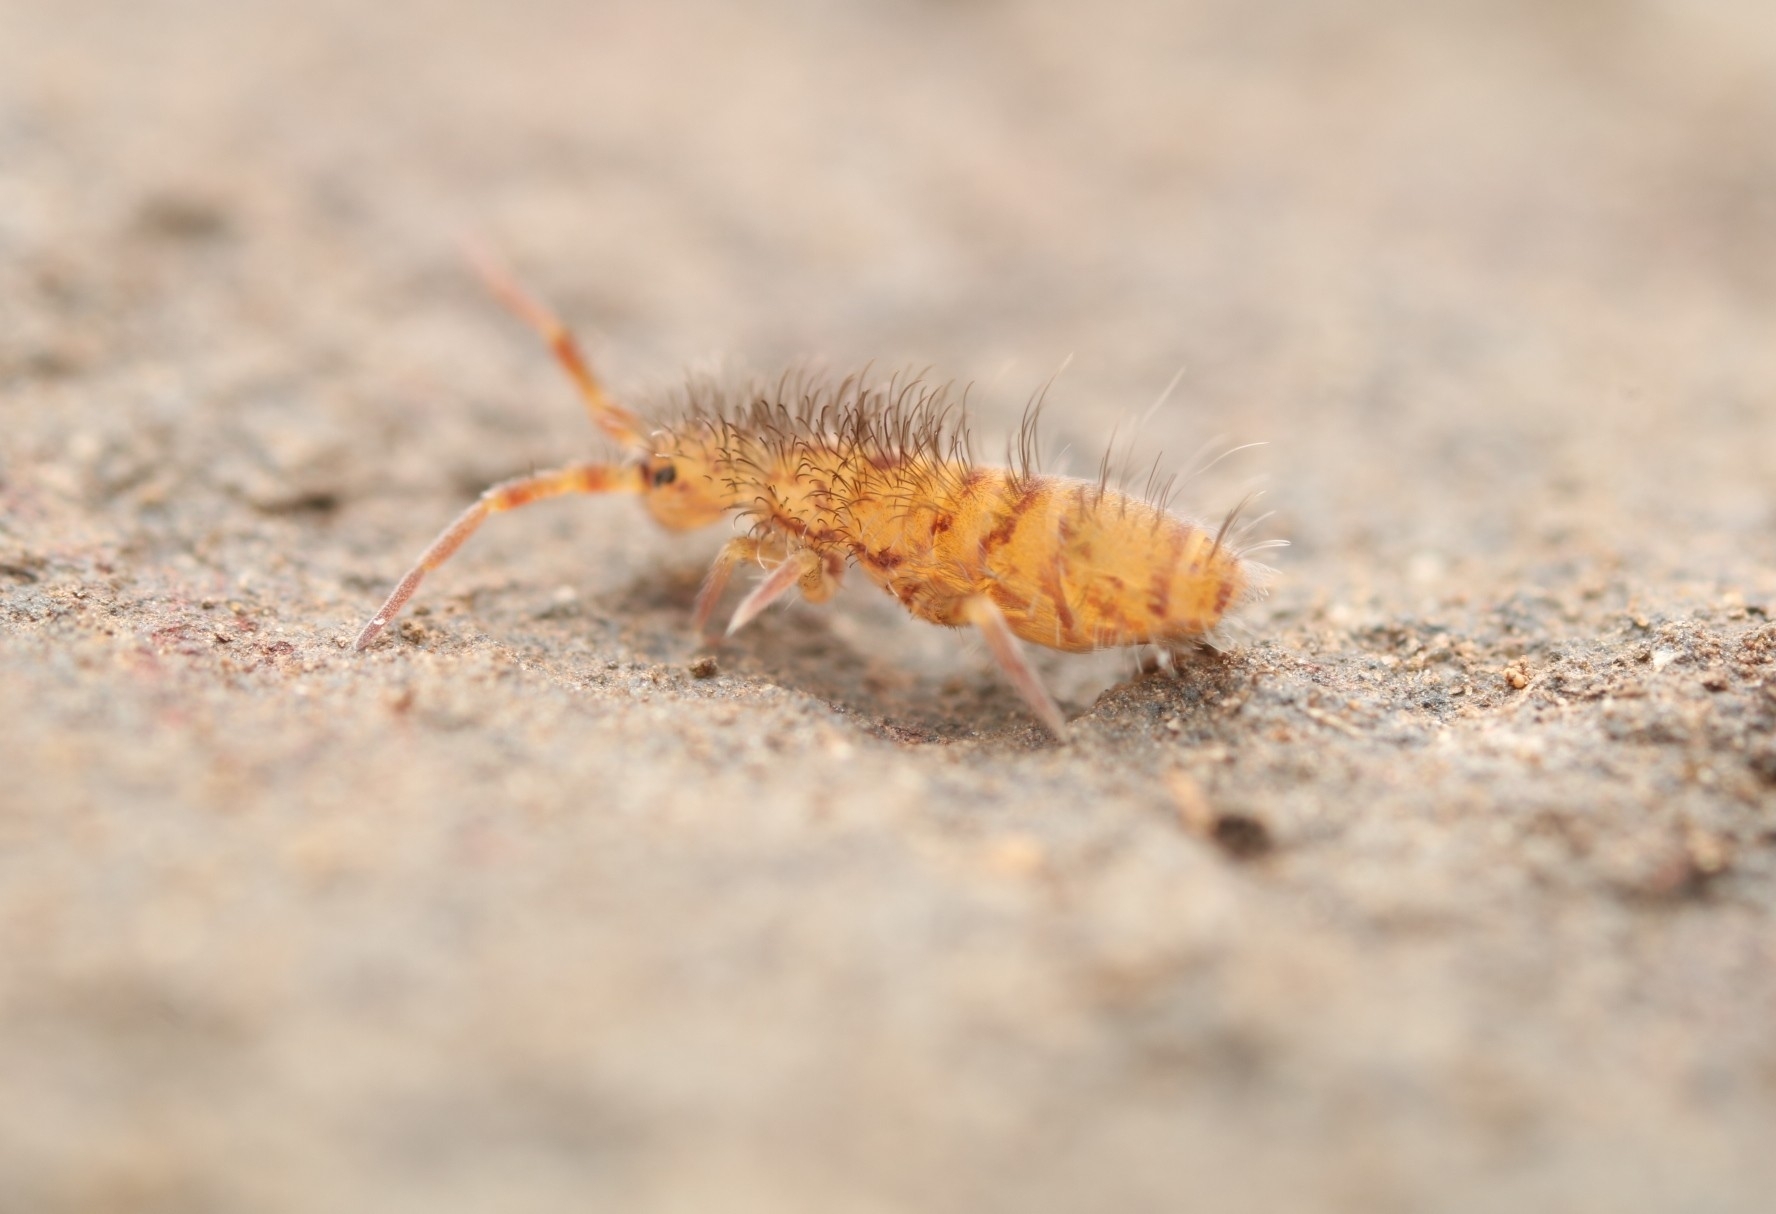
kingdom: Animalia
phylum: Arthropoda
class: Collembola
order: Entomobryomorpha
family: Orchesellidae
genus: Orchesella
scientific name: Orchesella villosa
